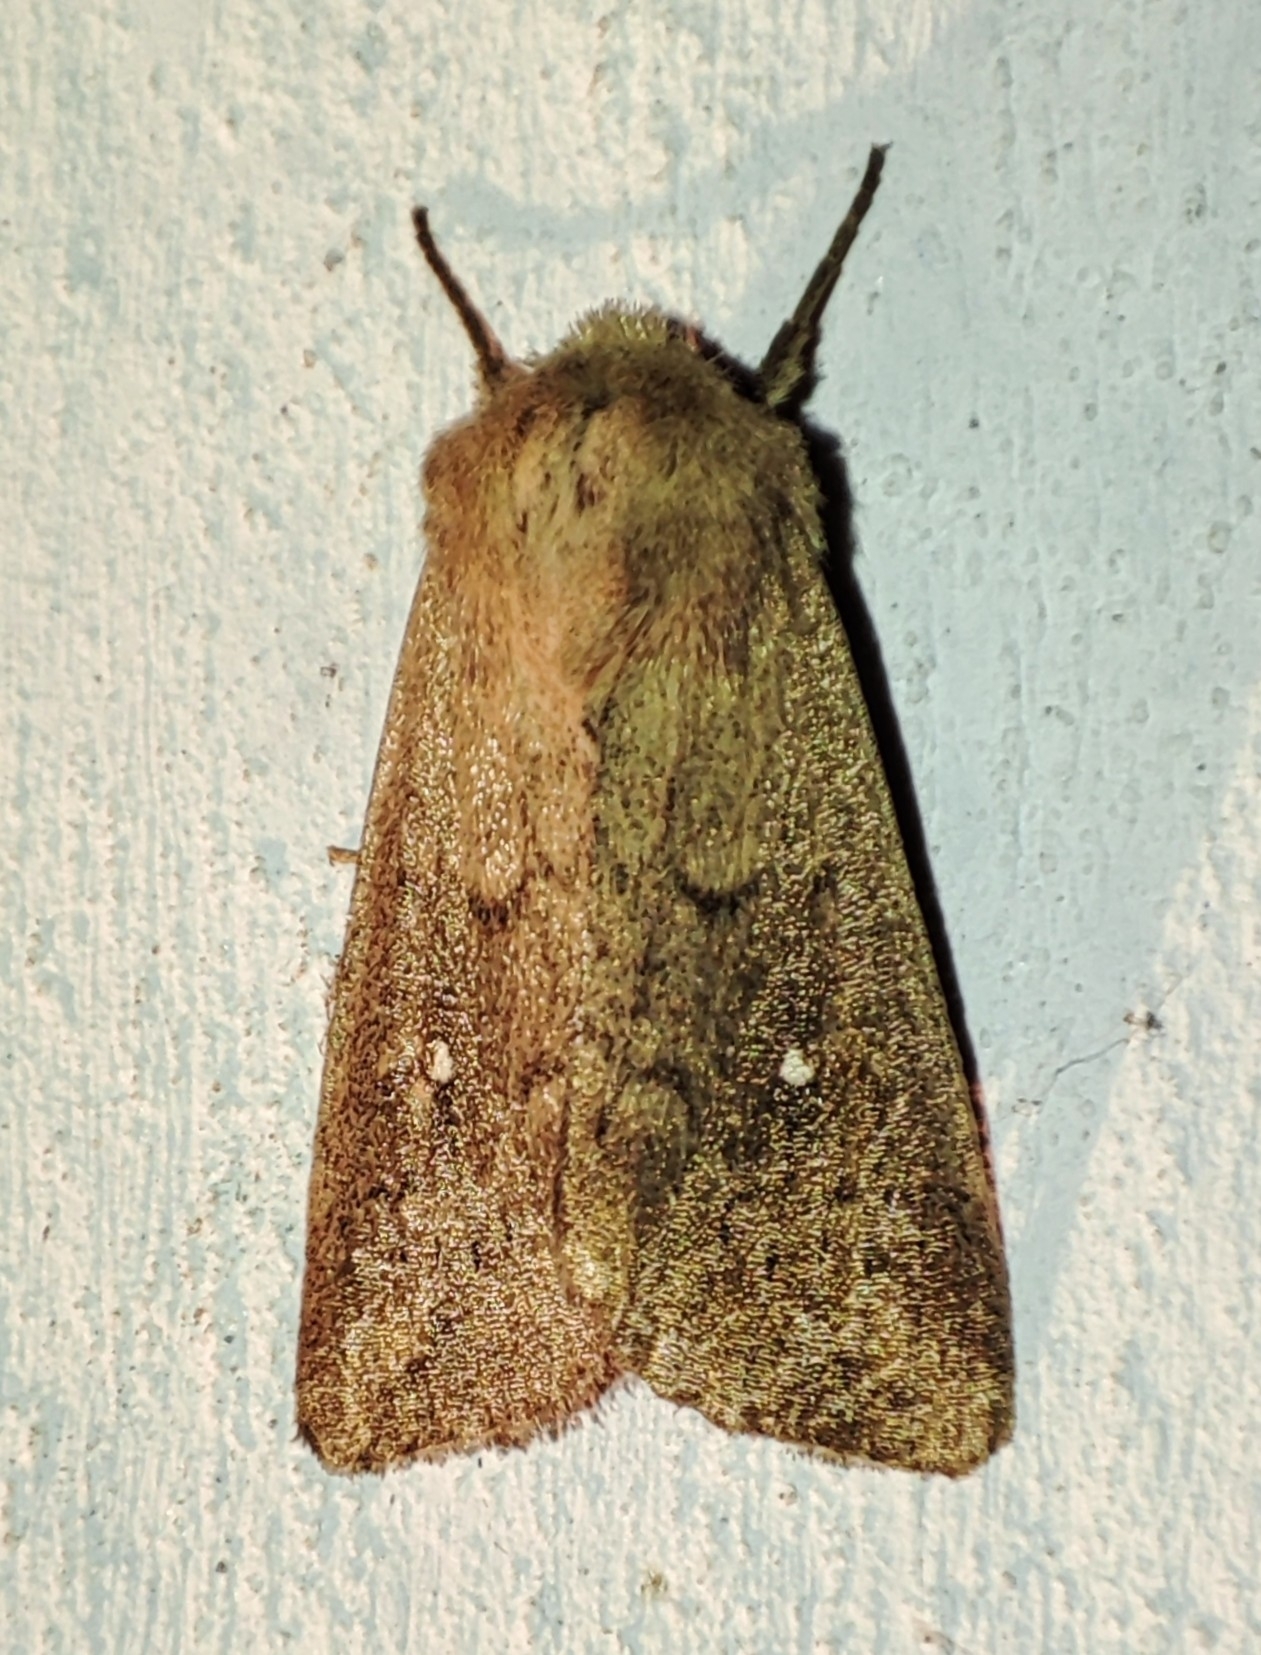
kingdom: Animalia
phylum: Arthropoda
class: Insecta
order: Lepidoptera
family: Noctuidae
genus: Mythimna
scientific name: Mythimna albipuncta
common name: White-point
